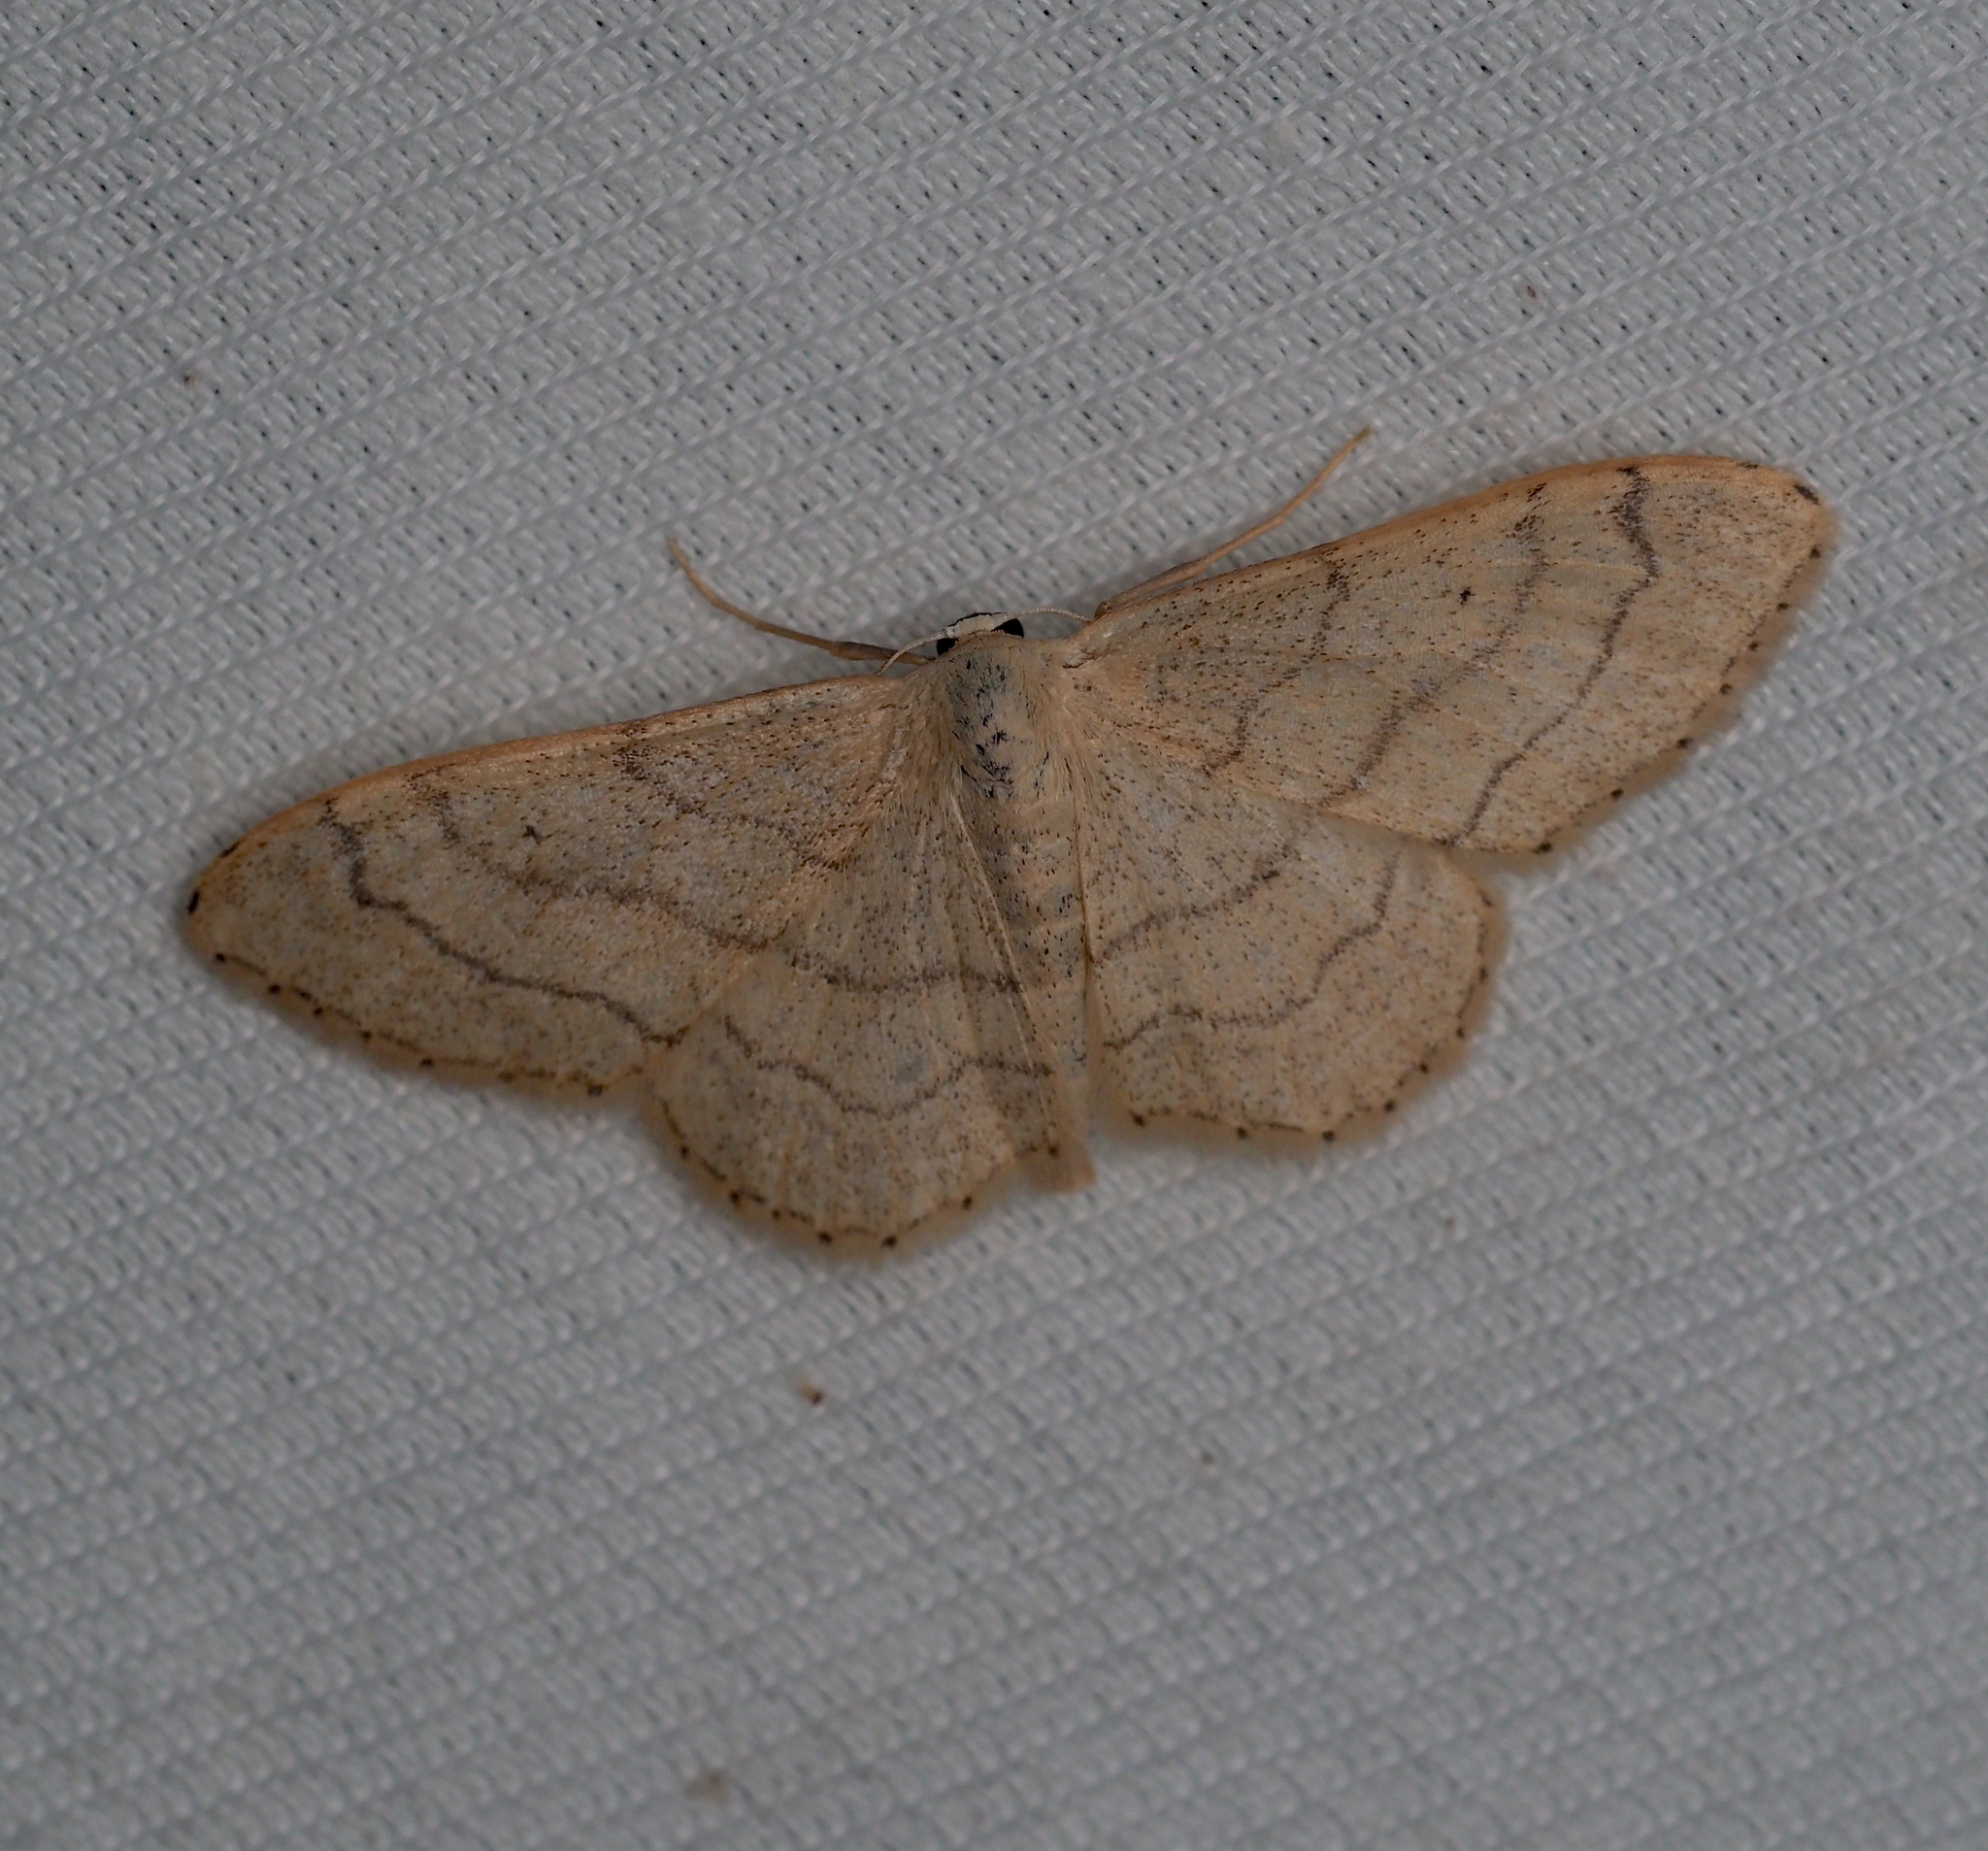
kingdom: Animalia
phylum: Arthropoda
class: Insecta
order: Lepidoptera
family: Geometridae
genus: Idaea
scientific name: Idaea aversata
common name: Riband wave
